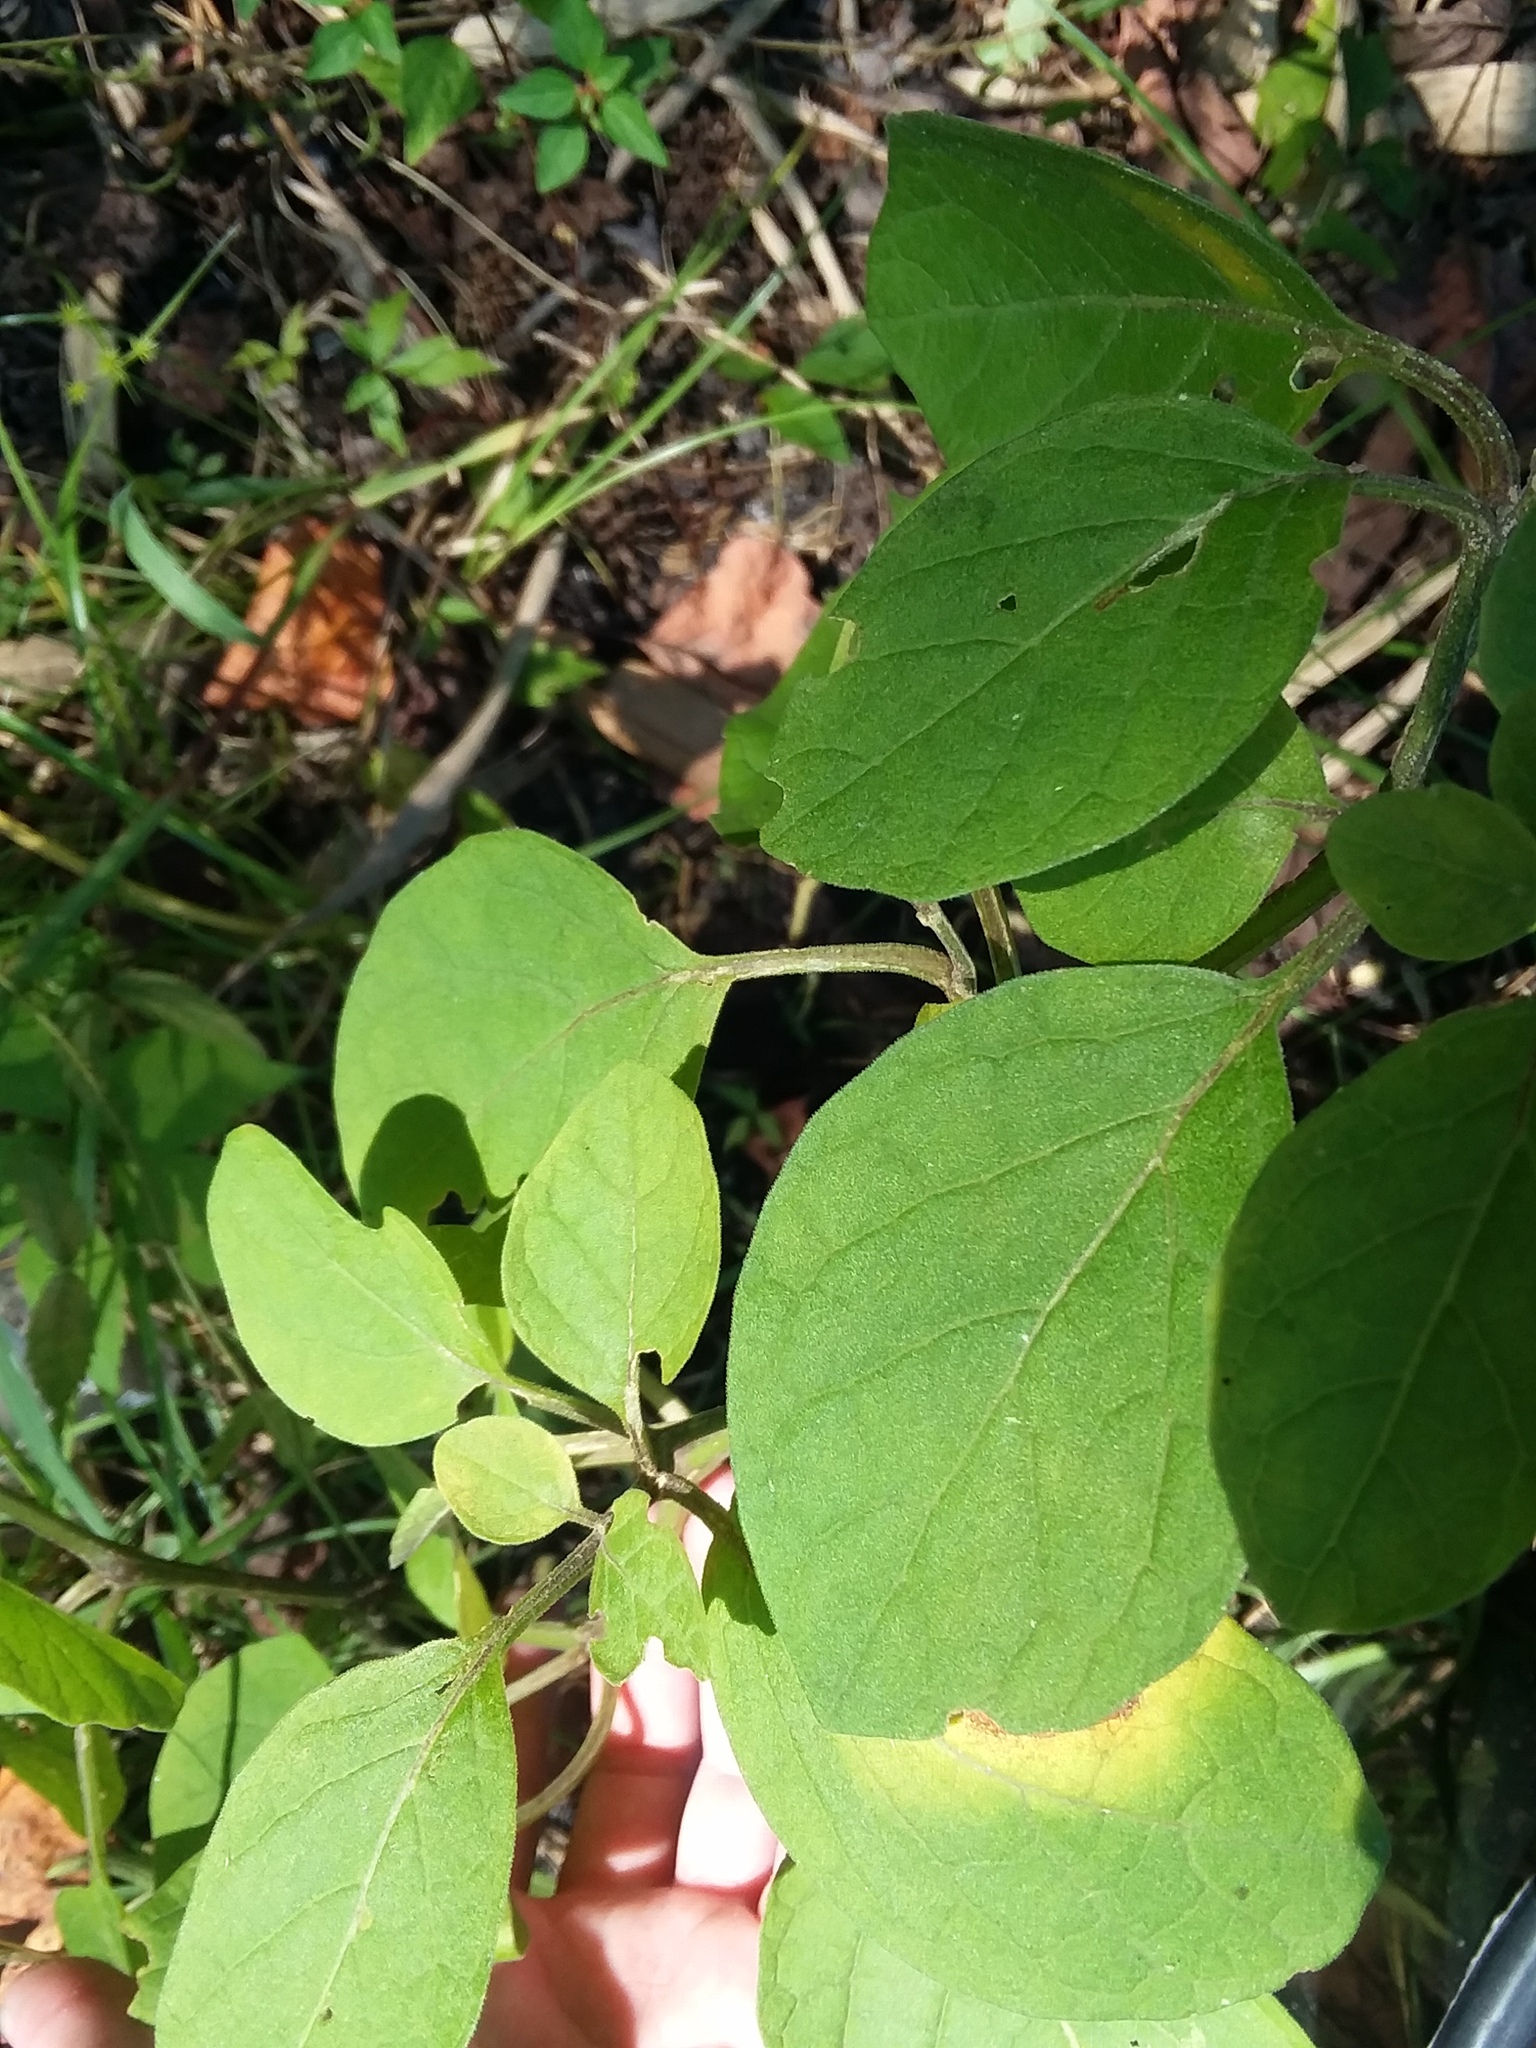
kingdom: Plantae
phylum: Tracheophyta
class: Magnoliopsida
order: Solanales
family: Solanaceae
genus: Physalis
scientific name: Physalis walteri
